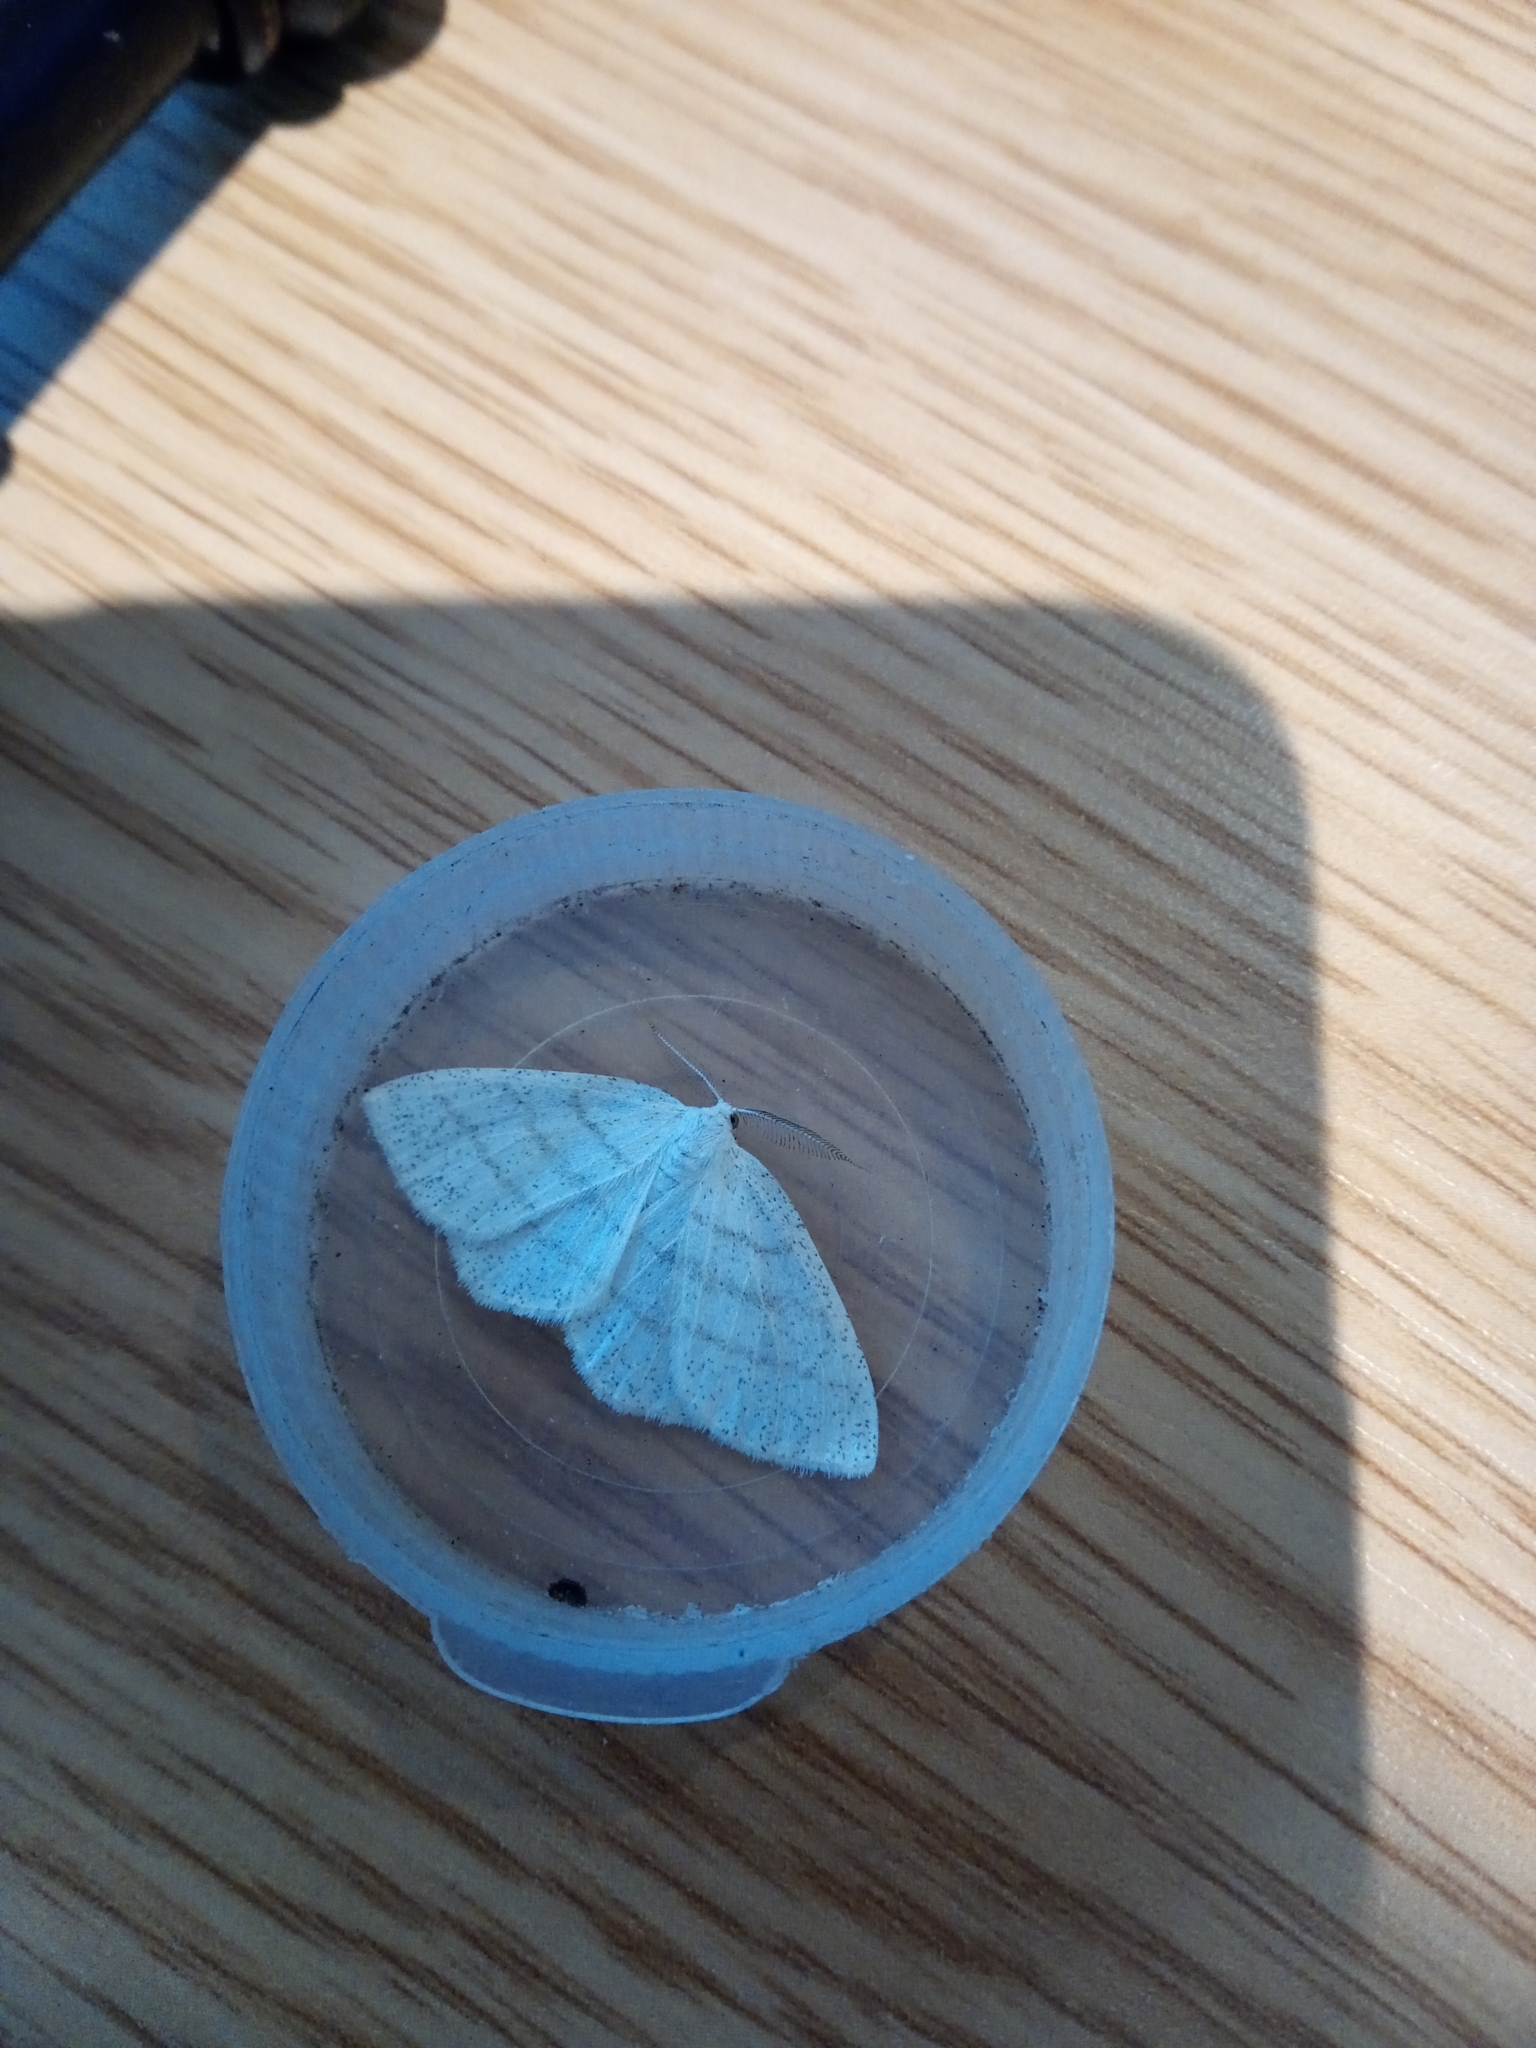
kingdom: Animalia
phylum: Arthropoda
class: Insecta
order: Lepidoptera
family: Geometridae
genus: Cabera
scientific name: Cabera pusaria
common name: Common white wave
